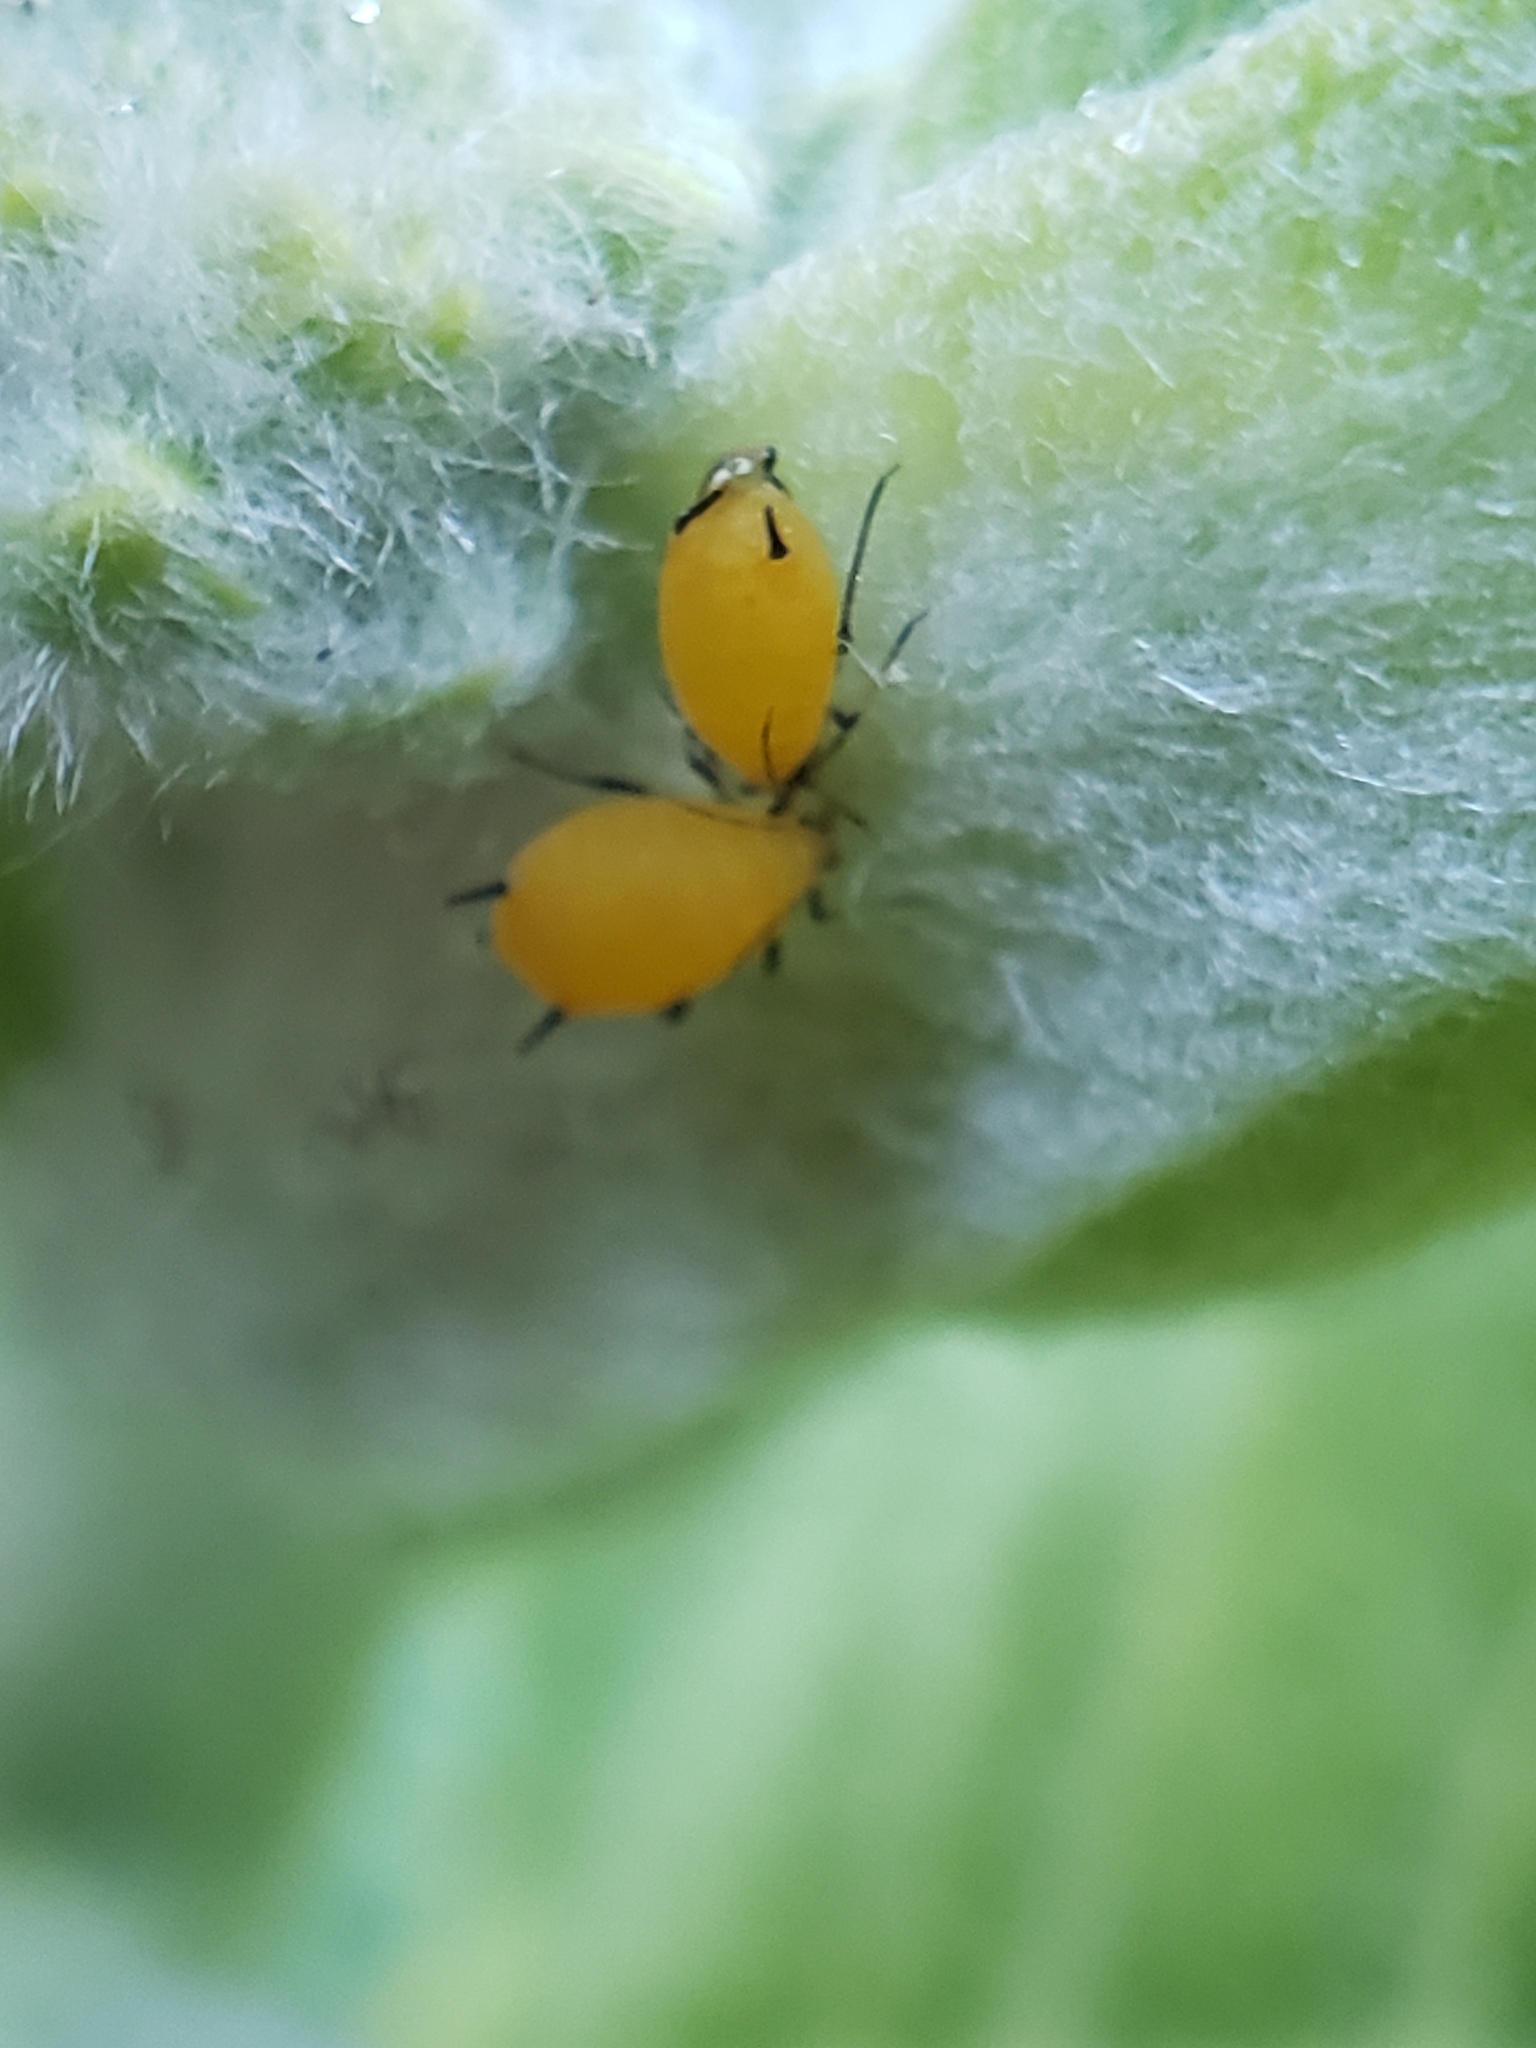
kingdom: Animalia
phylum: Arthropoda
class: Insecta
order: Hemiptera
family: Aphididae
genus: Aphis
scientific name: Aphis nerii
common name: Oleander aphid
